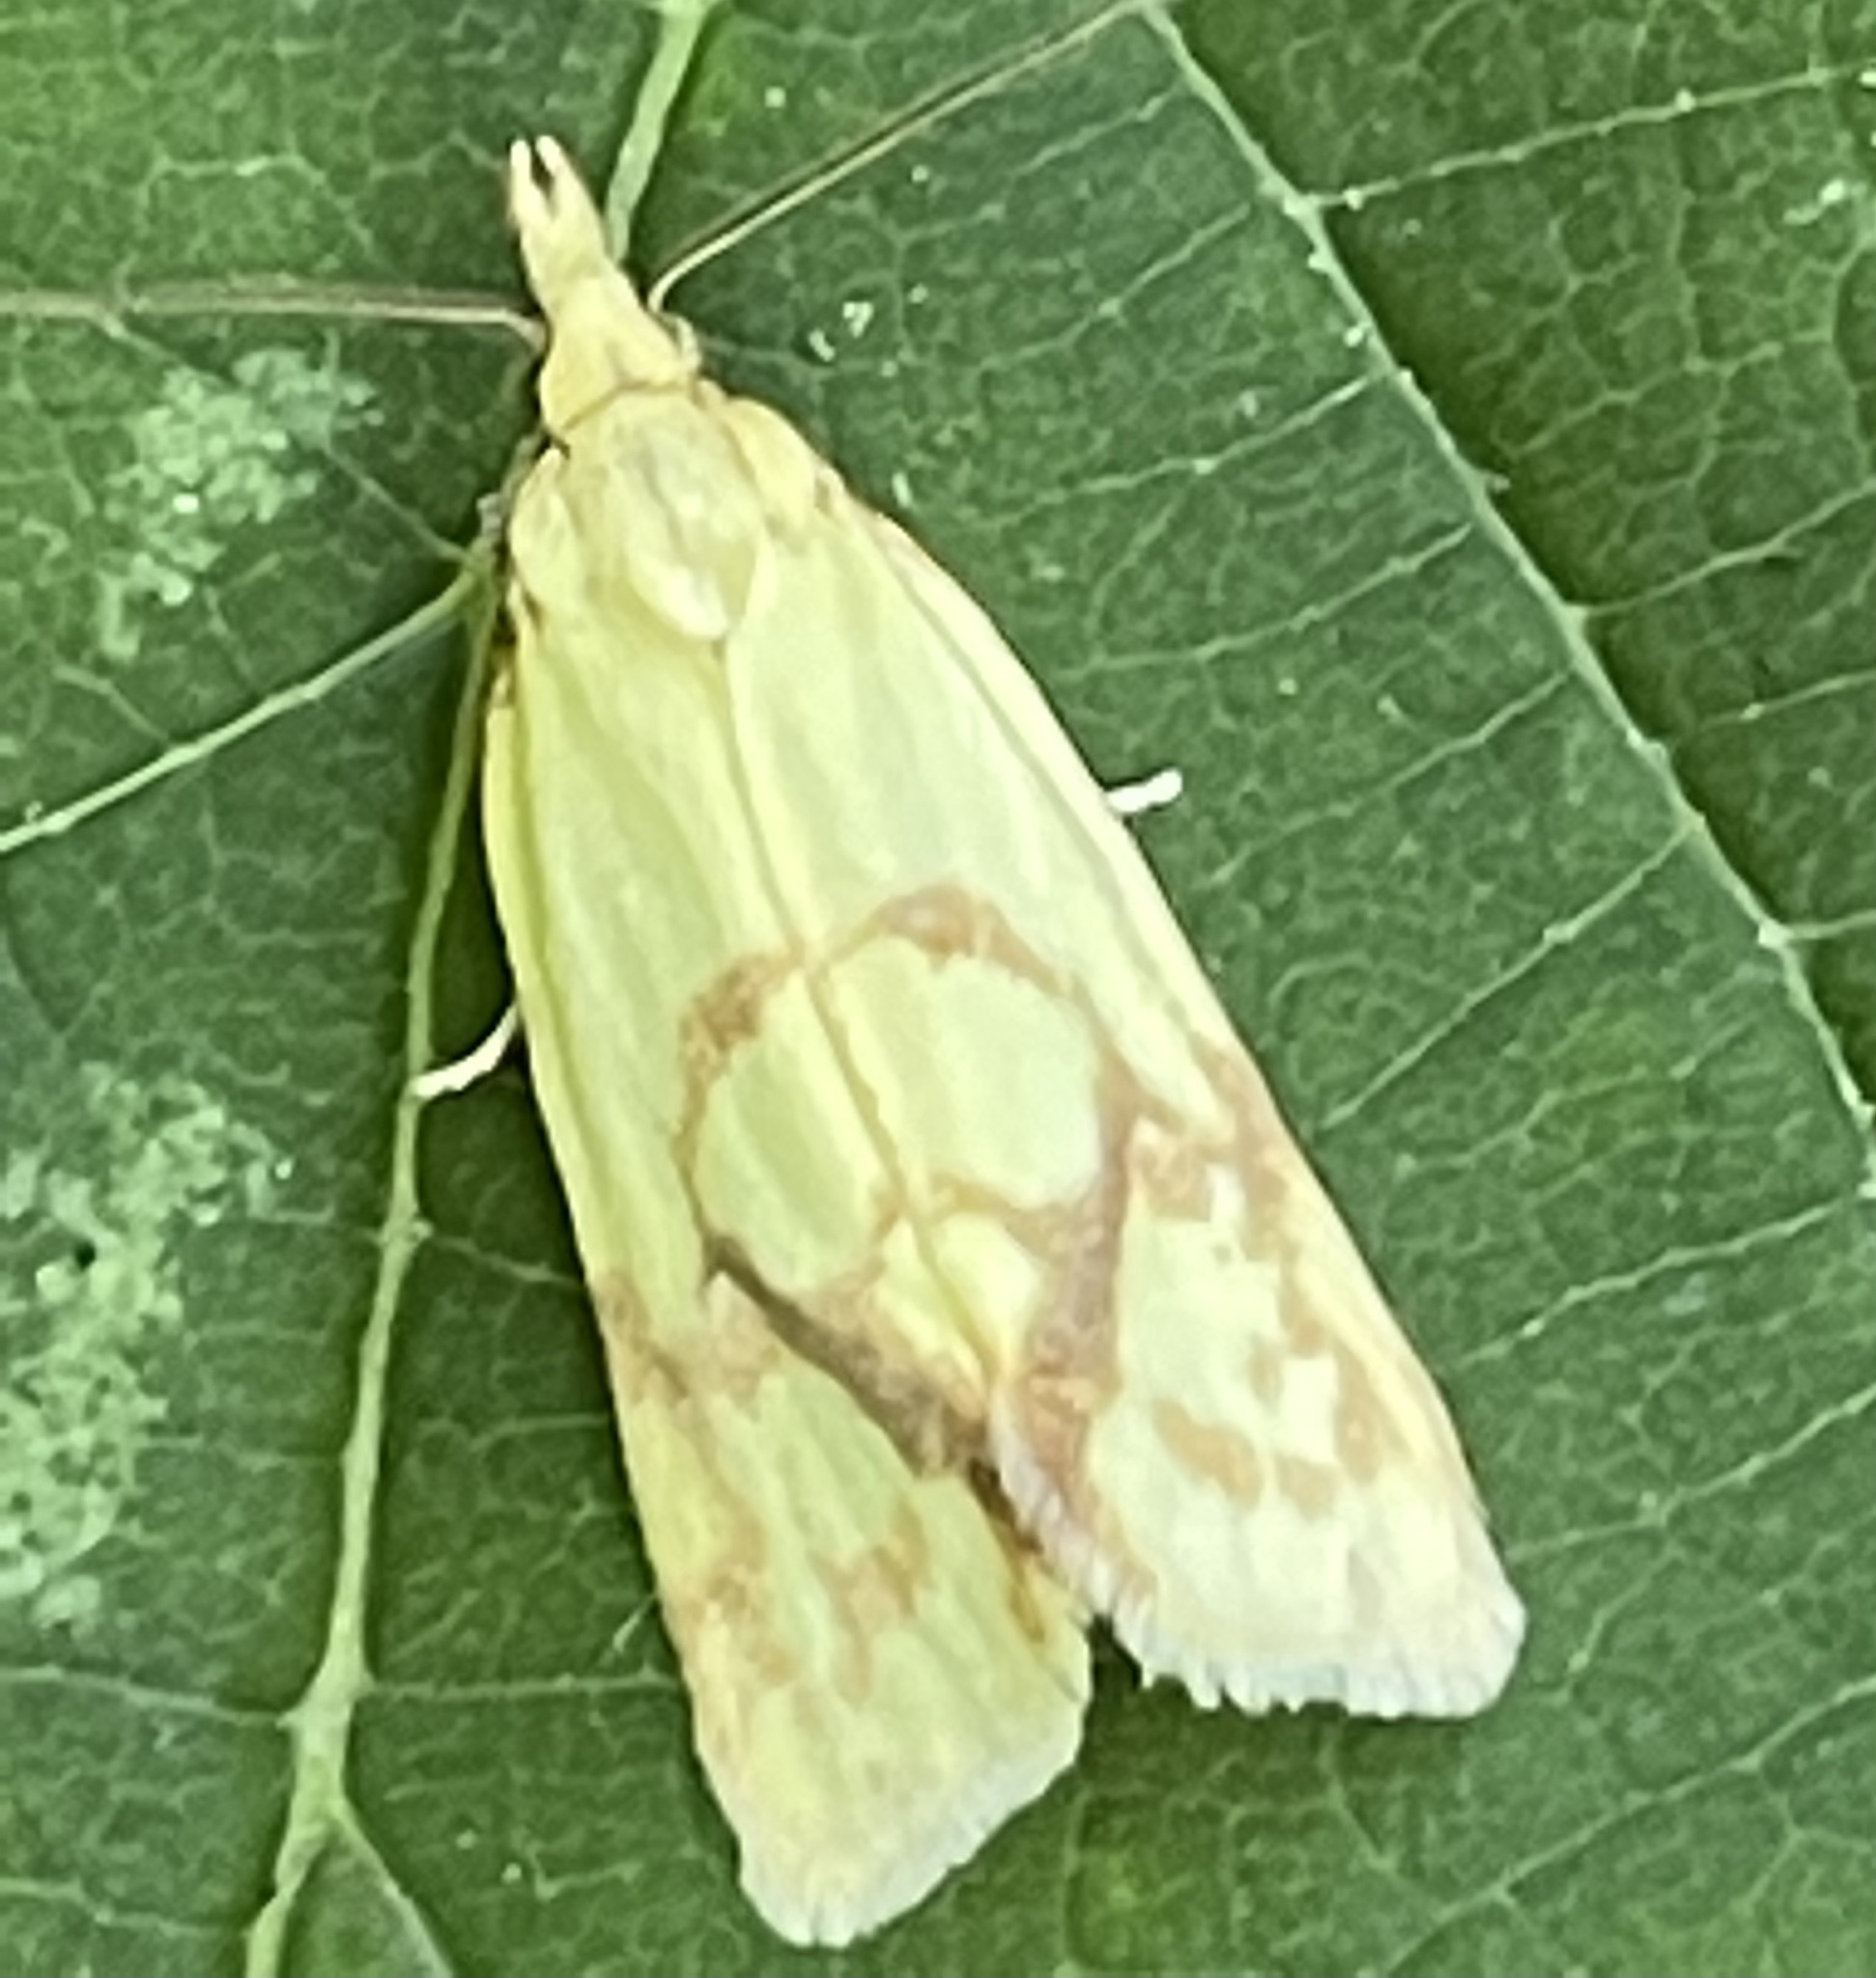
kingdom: Animalia
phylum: Arthropoda
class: Insecta
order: Lepidoptera
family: Tortricidae
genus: Agapeta
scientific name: Agapeta hamana
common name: Common yellow conch
